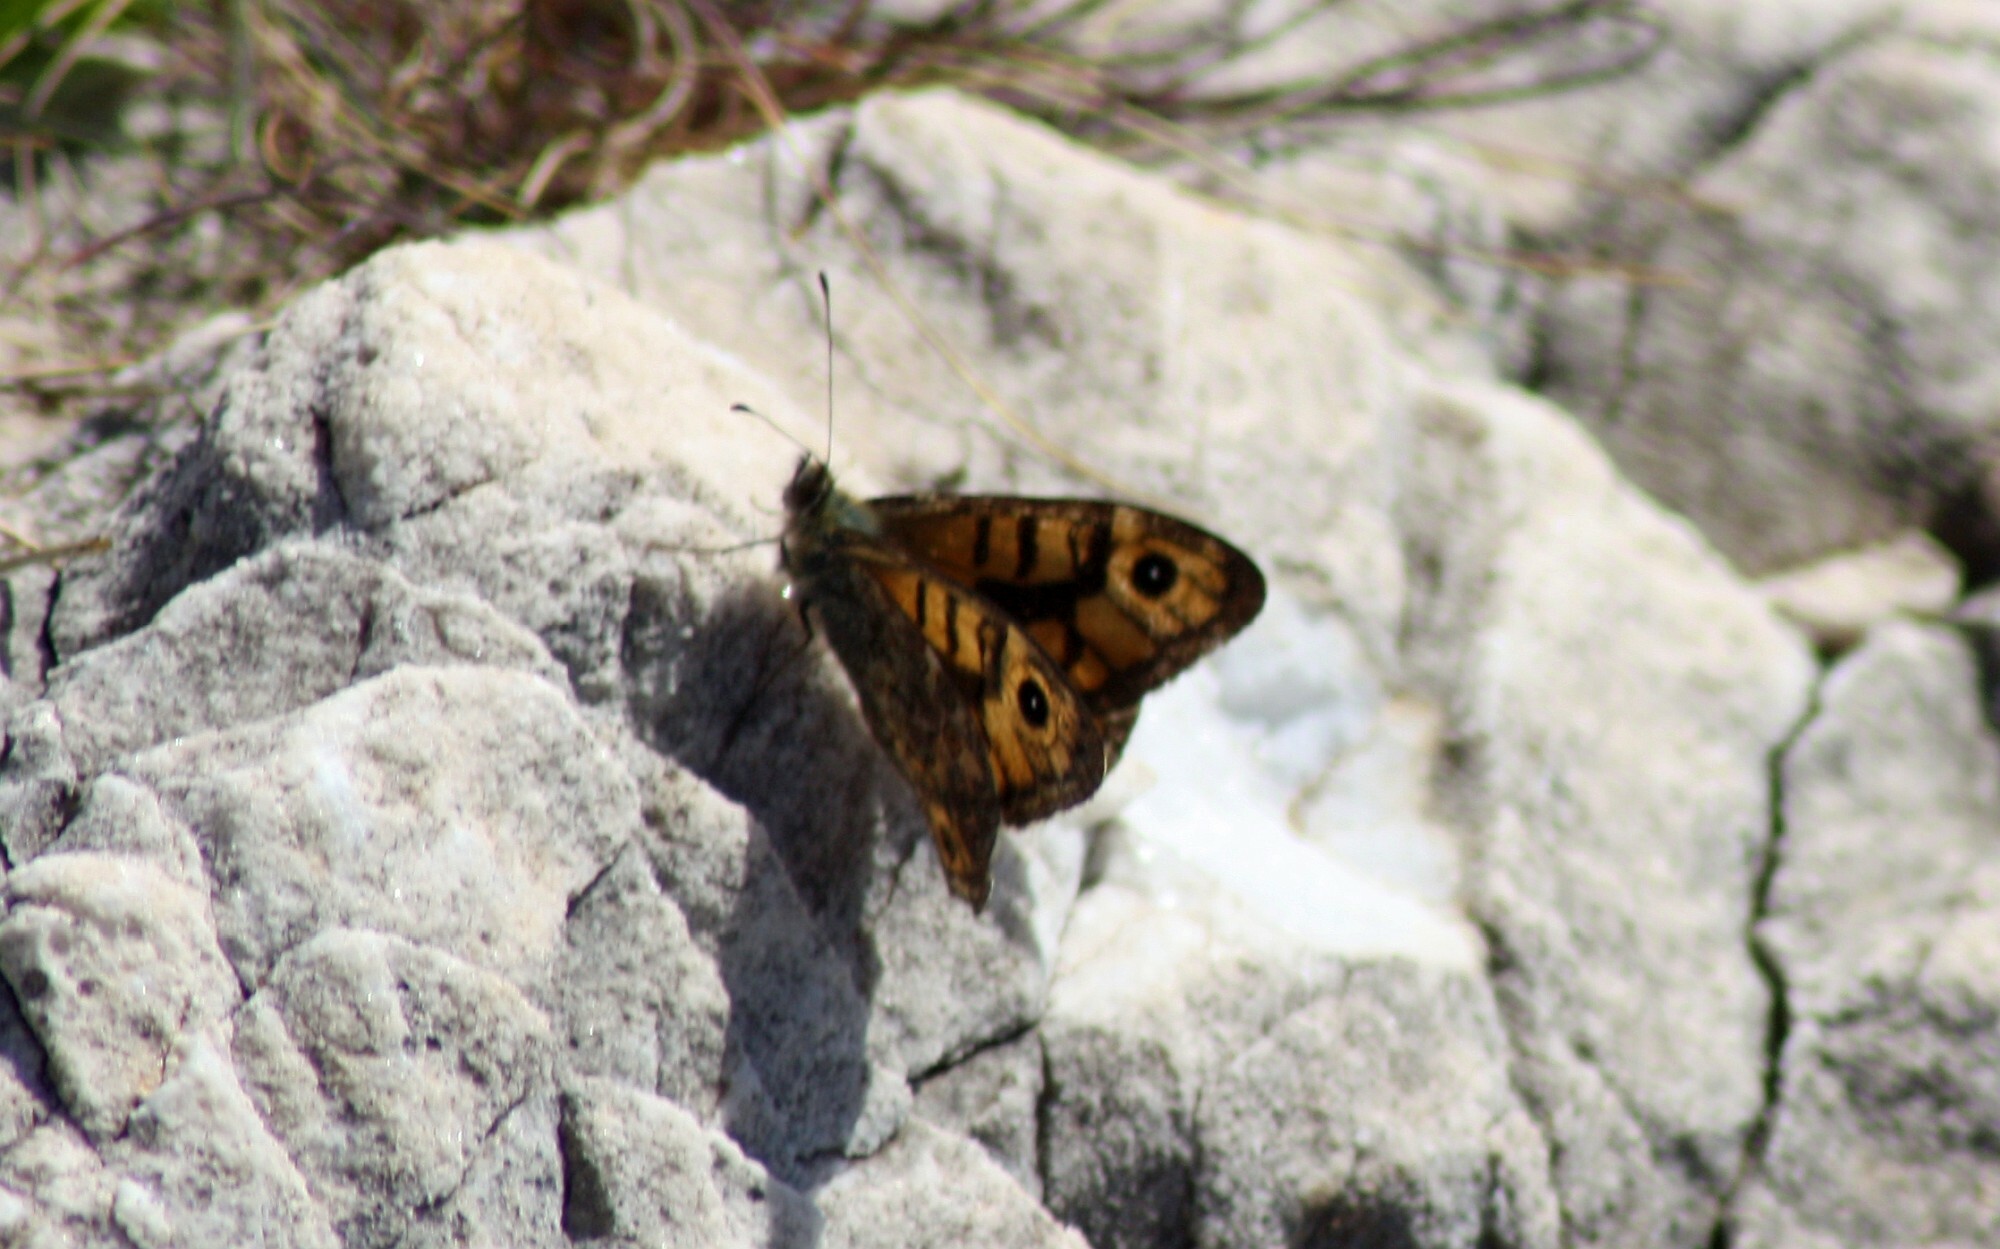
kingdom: Animalia
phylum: Arthropoda
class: Insecta
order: Lepidoptera
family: Nymphalidae
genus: Pararge
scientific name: Pararge Lasiommata megera
